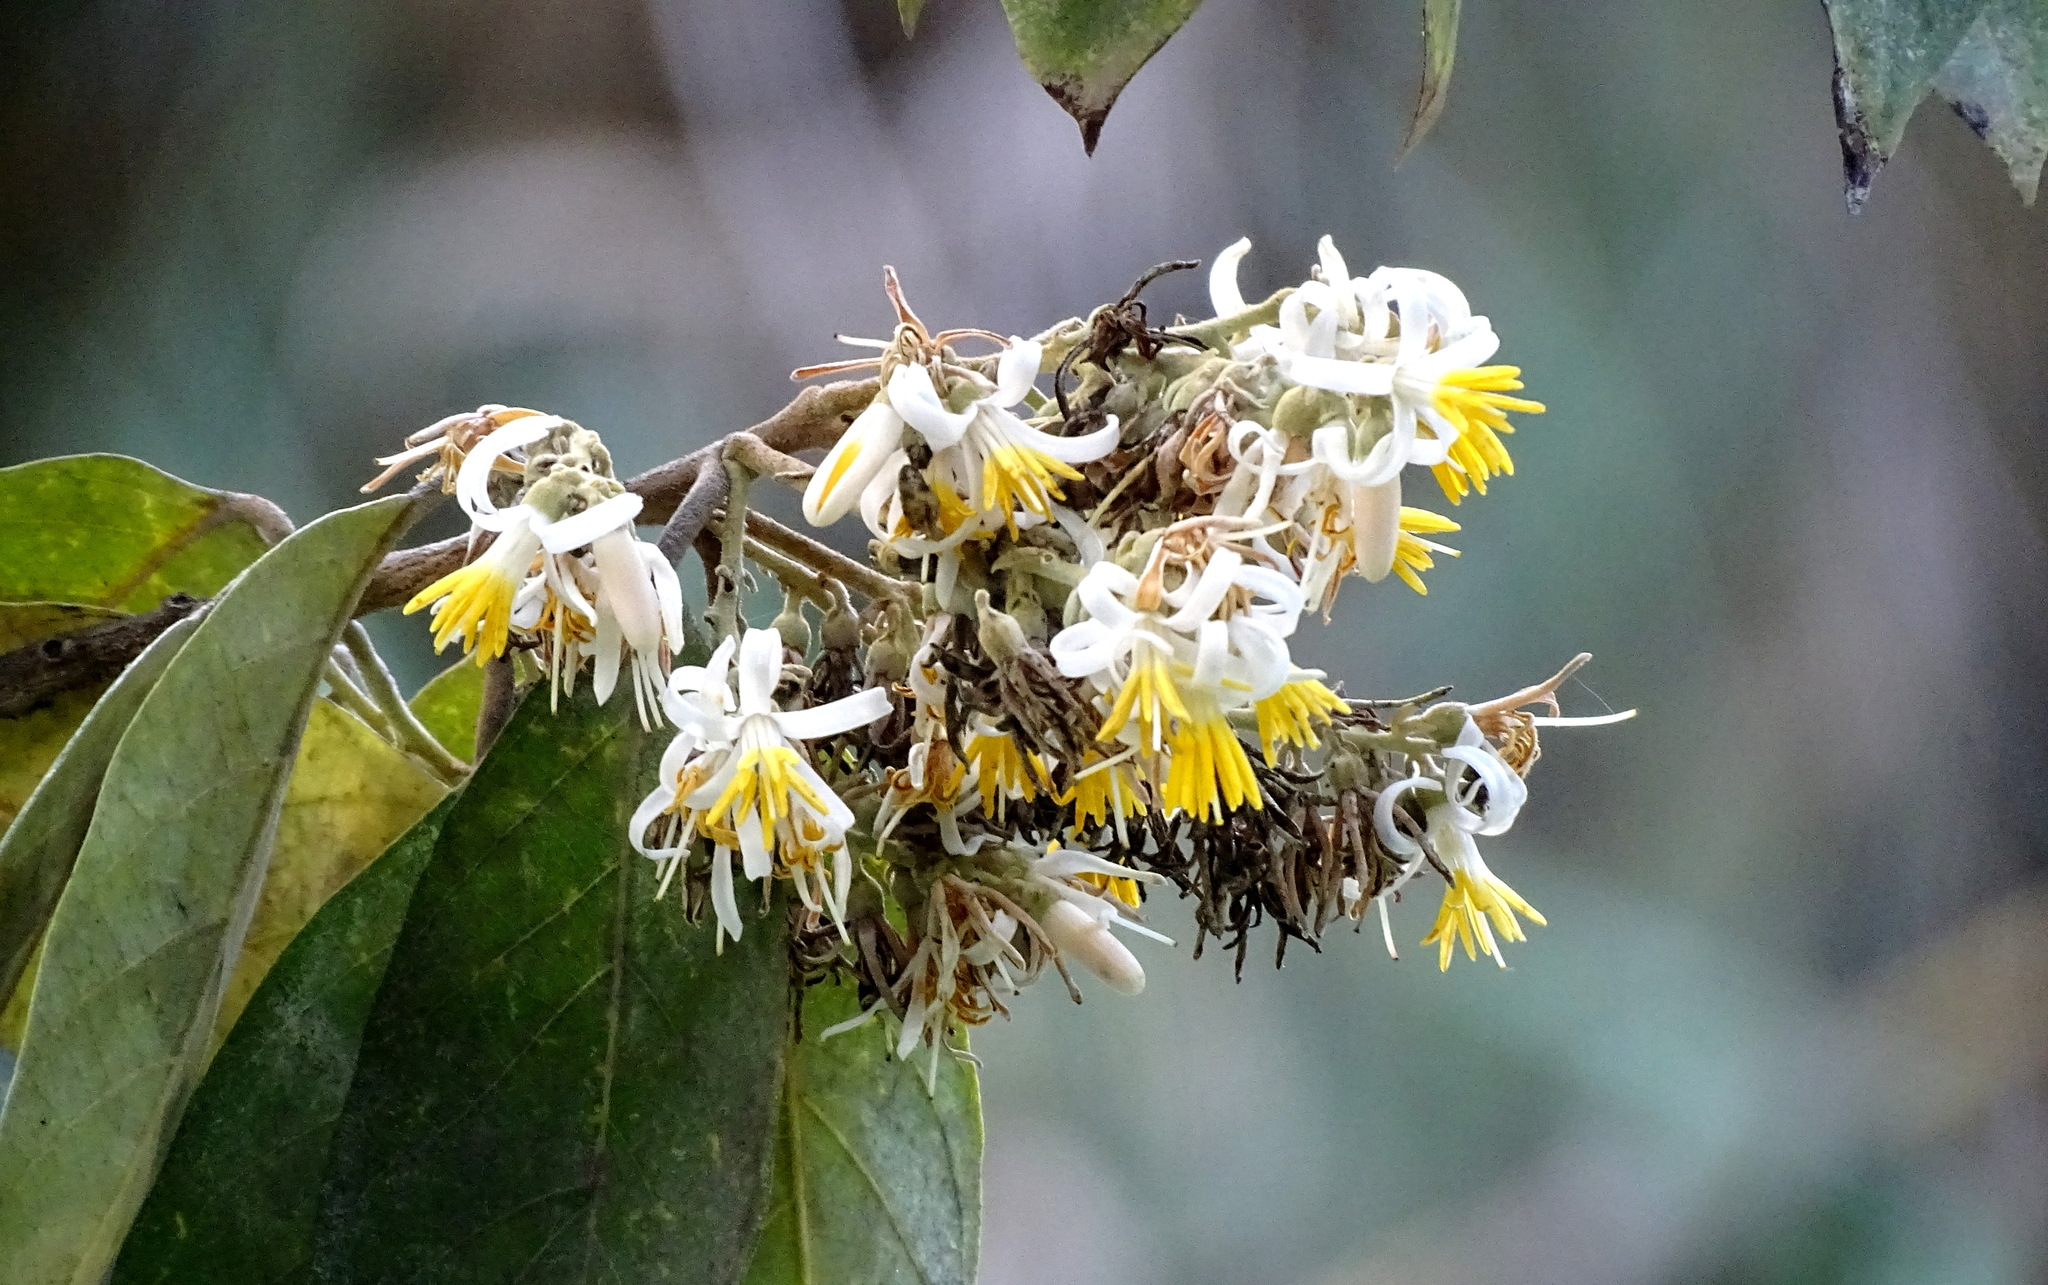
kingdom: Plantae
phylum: Tracheophyta
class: Magnoliopsida
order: Ericales
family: Styracaceae
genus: Styrax
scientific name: Styrax argenteus
